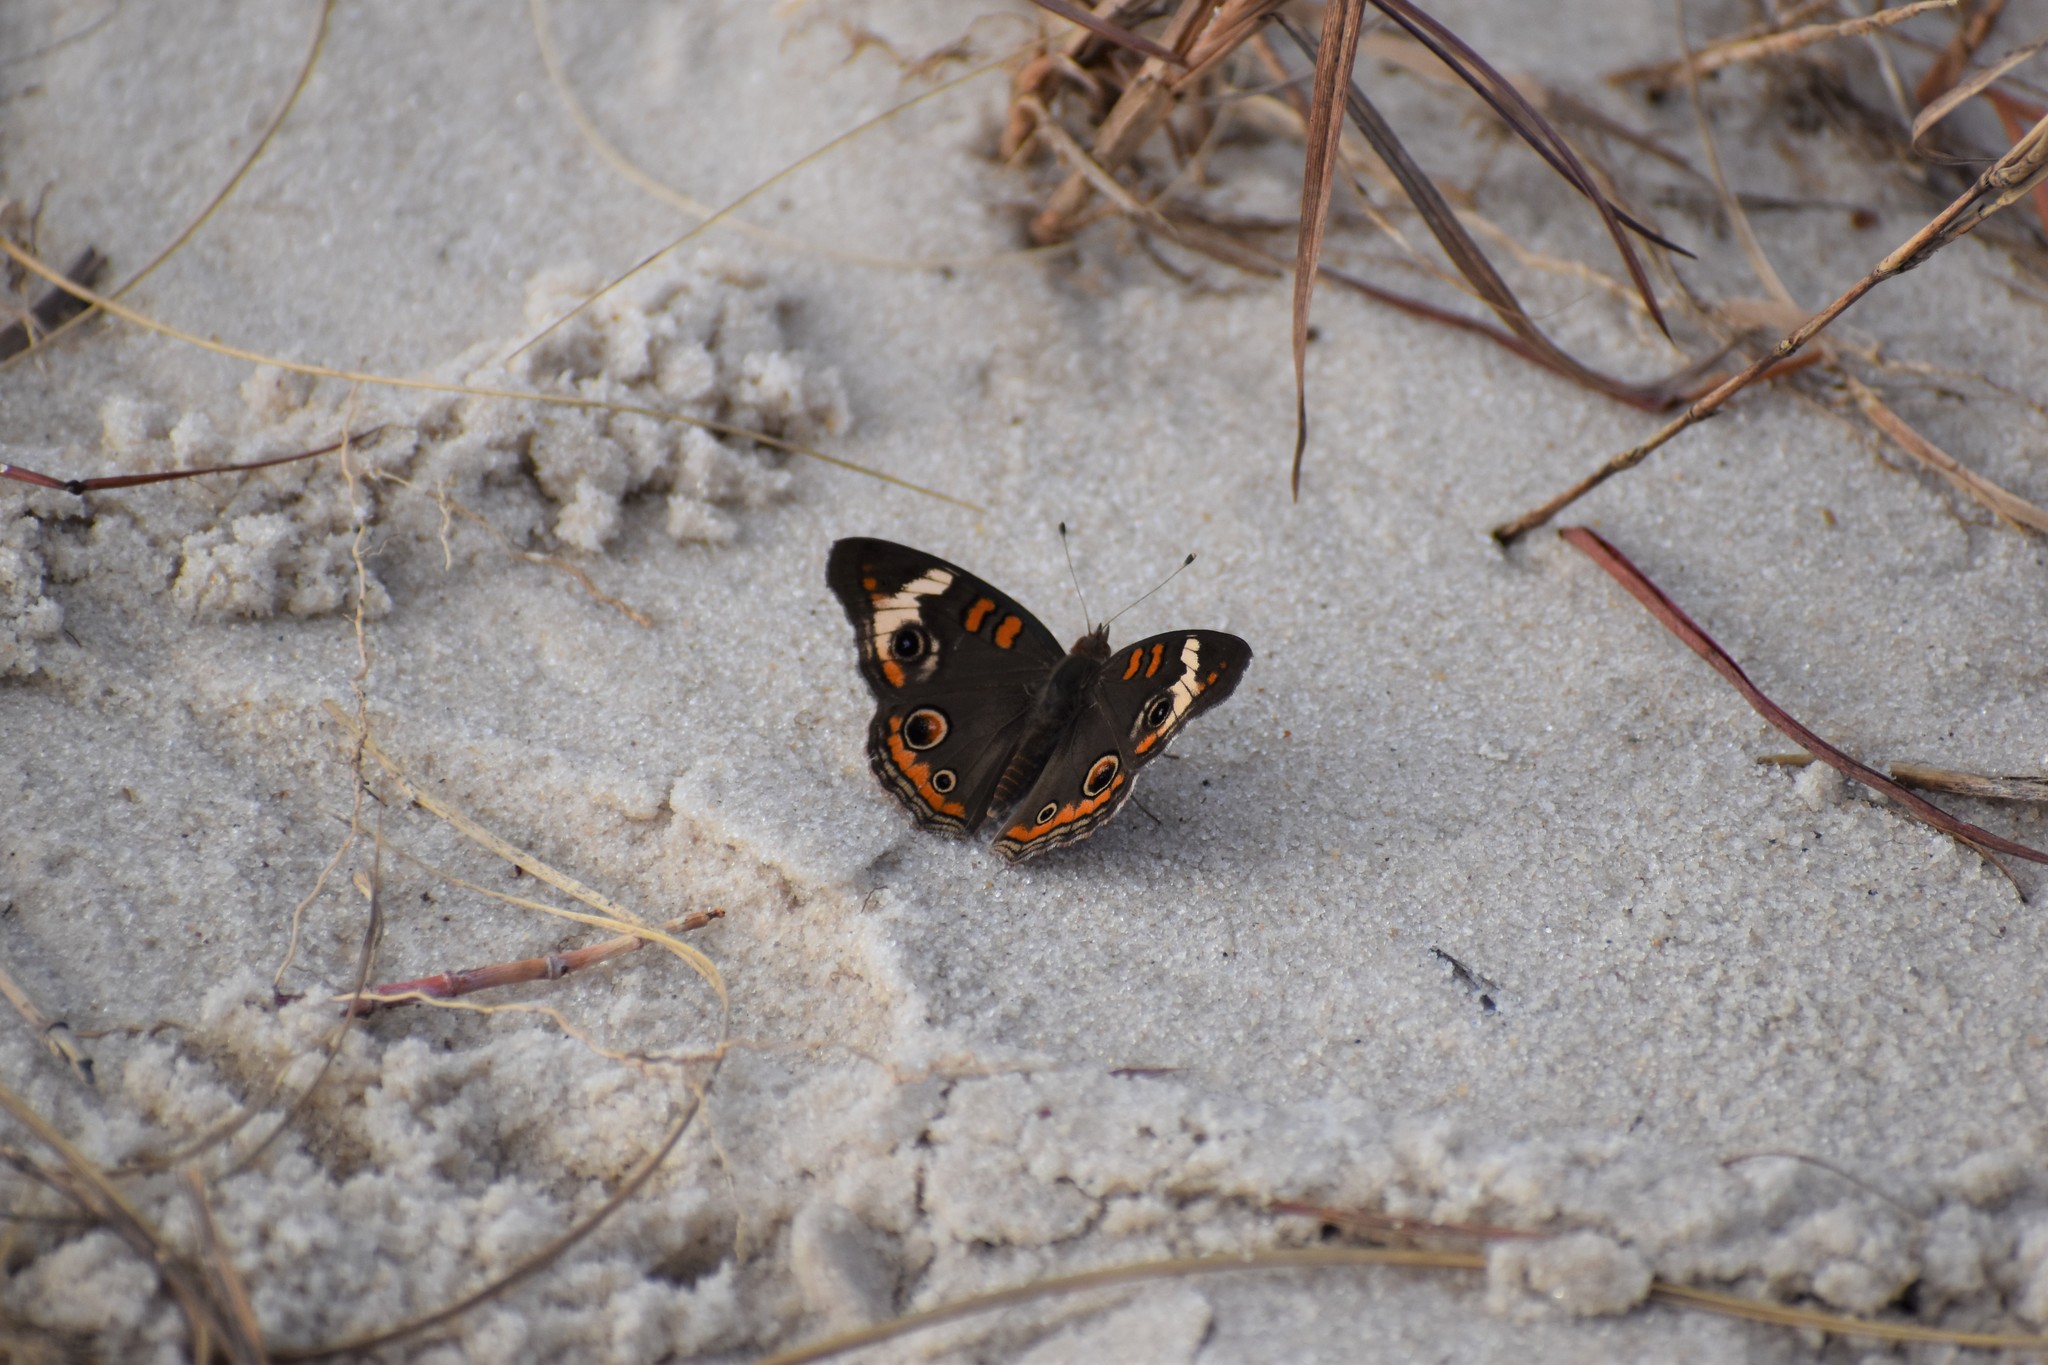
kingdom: Animalia
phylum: Arthropoda
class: Insecta
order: Lepidoptera
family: Nymphalidae
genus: Junonia
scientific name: Junonia coenia
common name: Common buckeye
